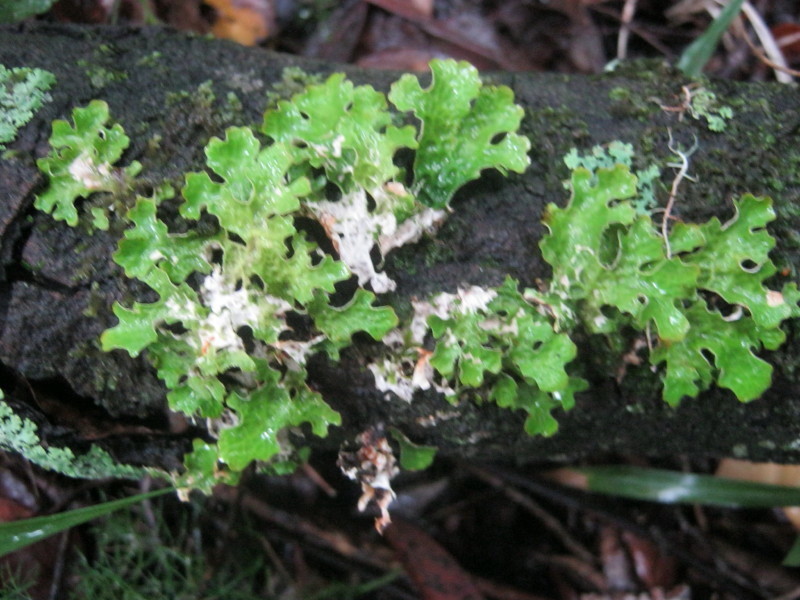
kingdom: Fungi
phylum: Ascomycota
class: Lecanoromycetes
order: Peltigerales
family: Lobariaceae
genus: Lobaria
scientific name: Lobaria pulmonaria
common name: Lungwort
